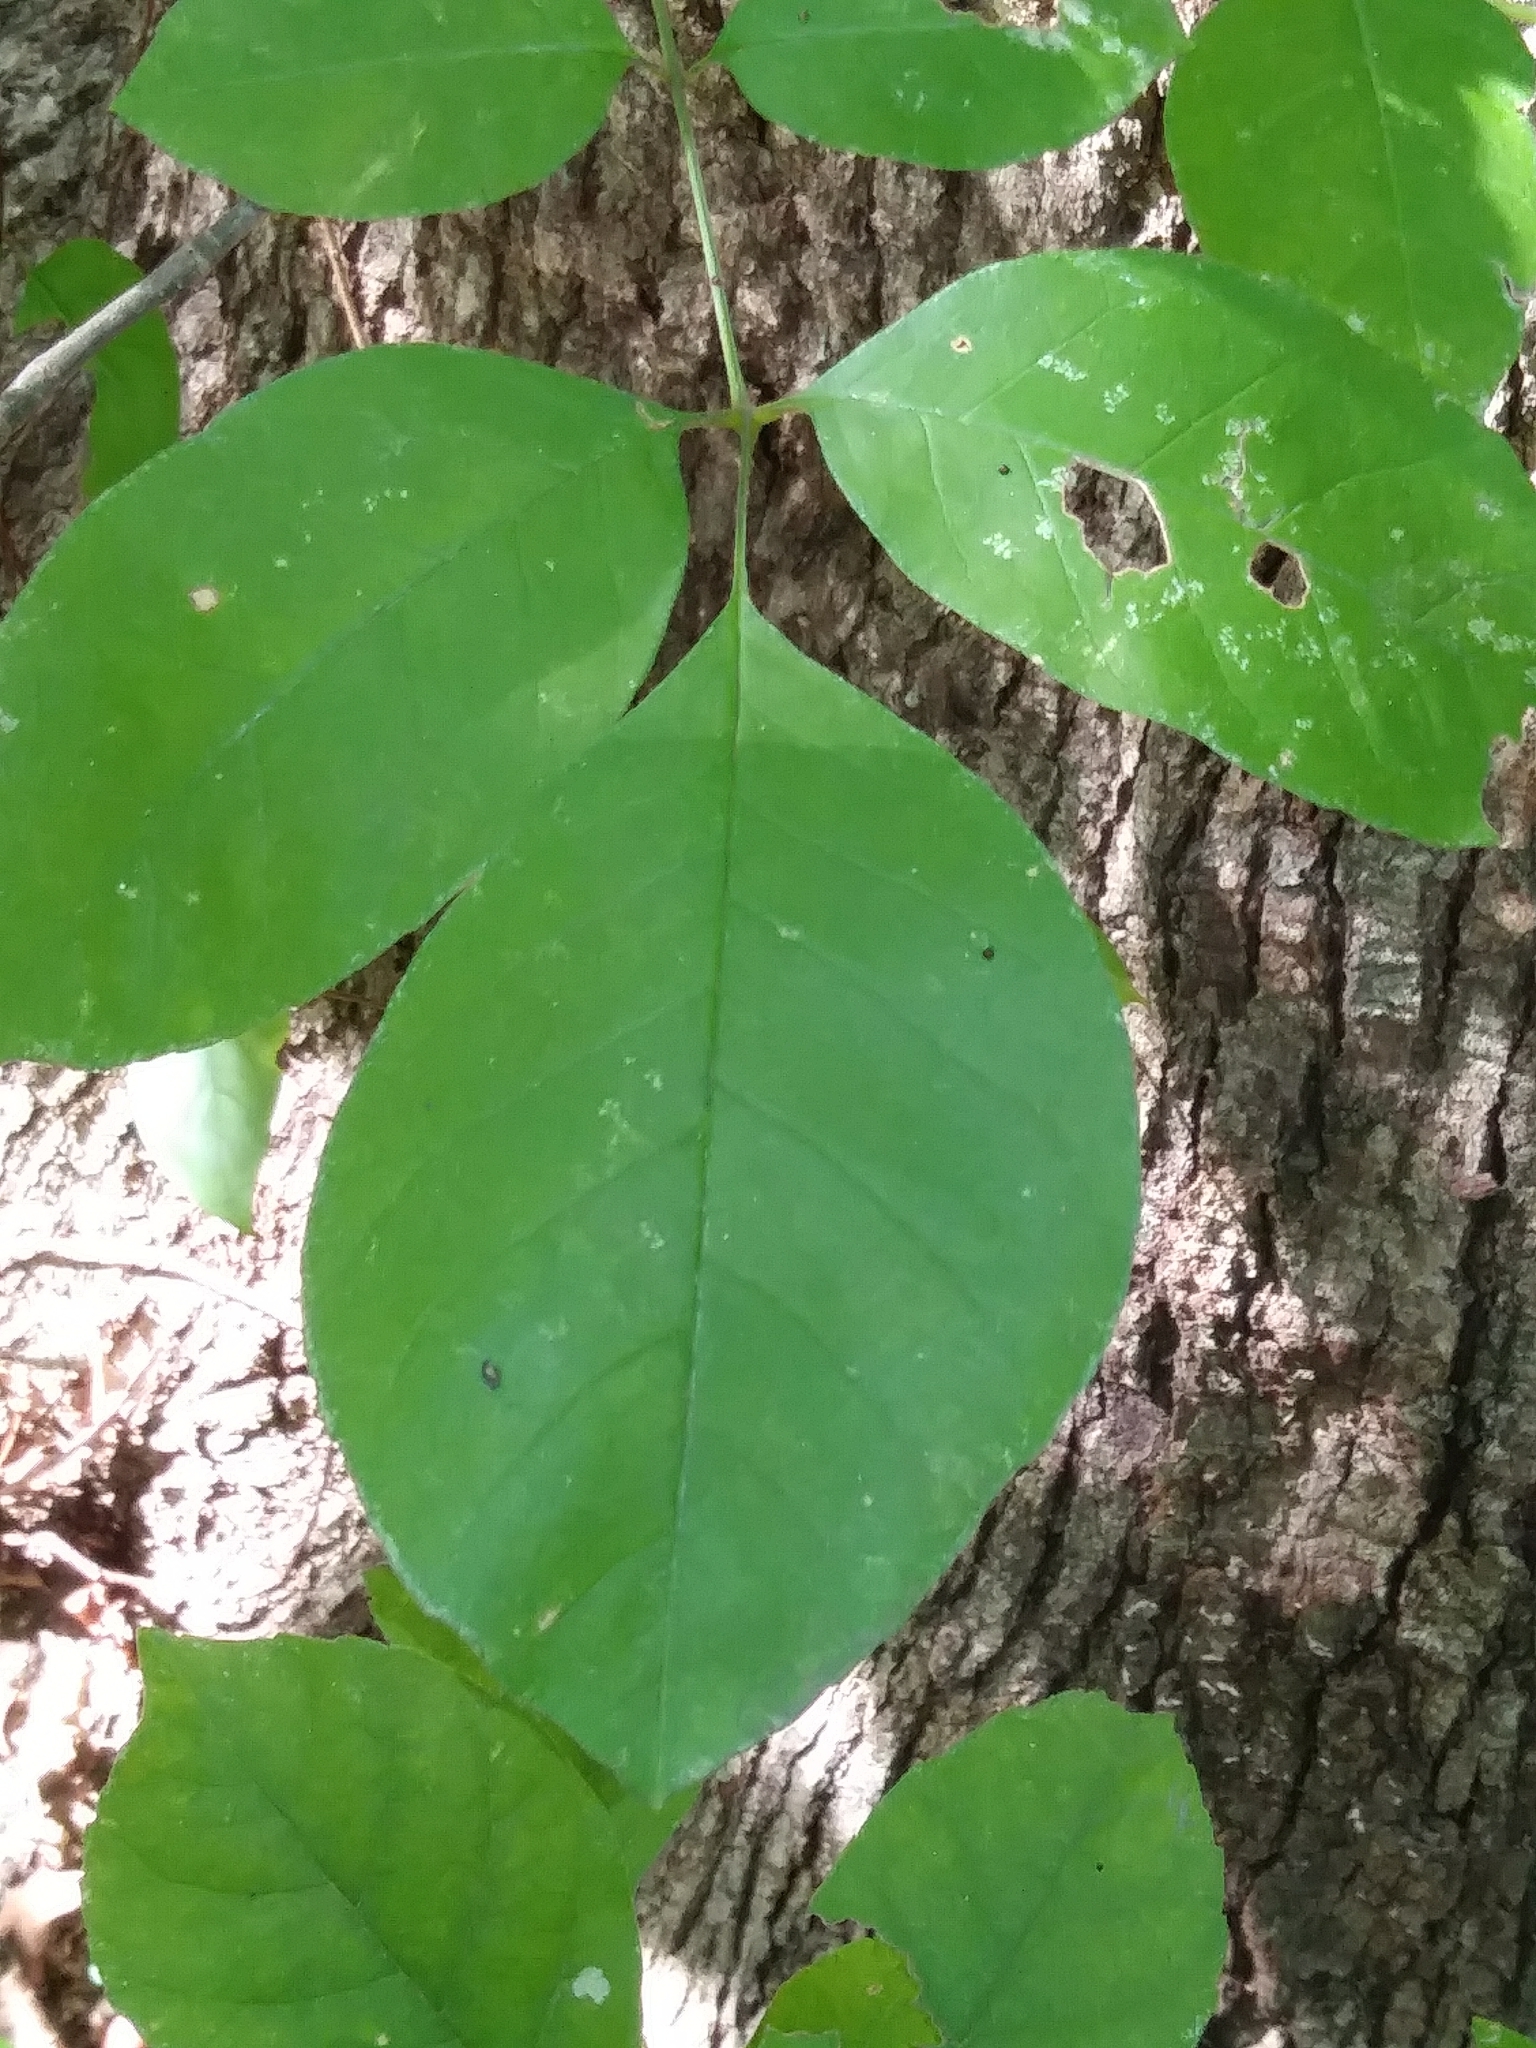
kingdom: Plantae
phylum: Tracheophyta
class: Magnoliopsida
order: Lamiales
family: Oleaceae
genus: Fraxinus
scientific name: Fraxinus pennsylvanica
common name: Green ash
